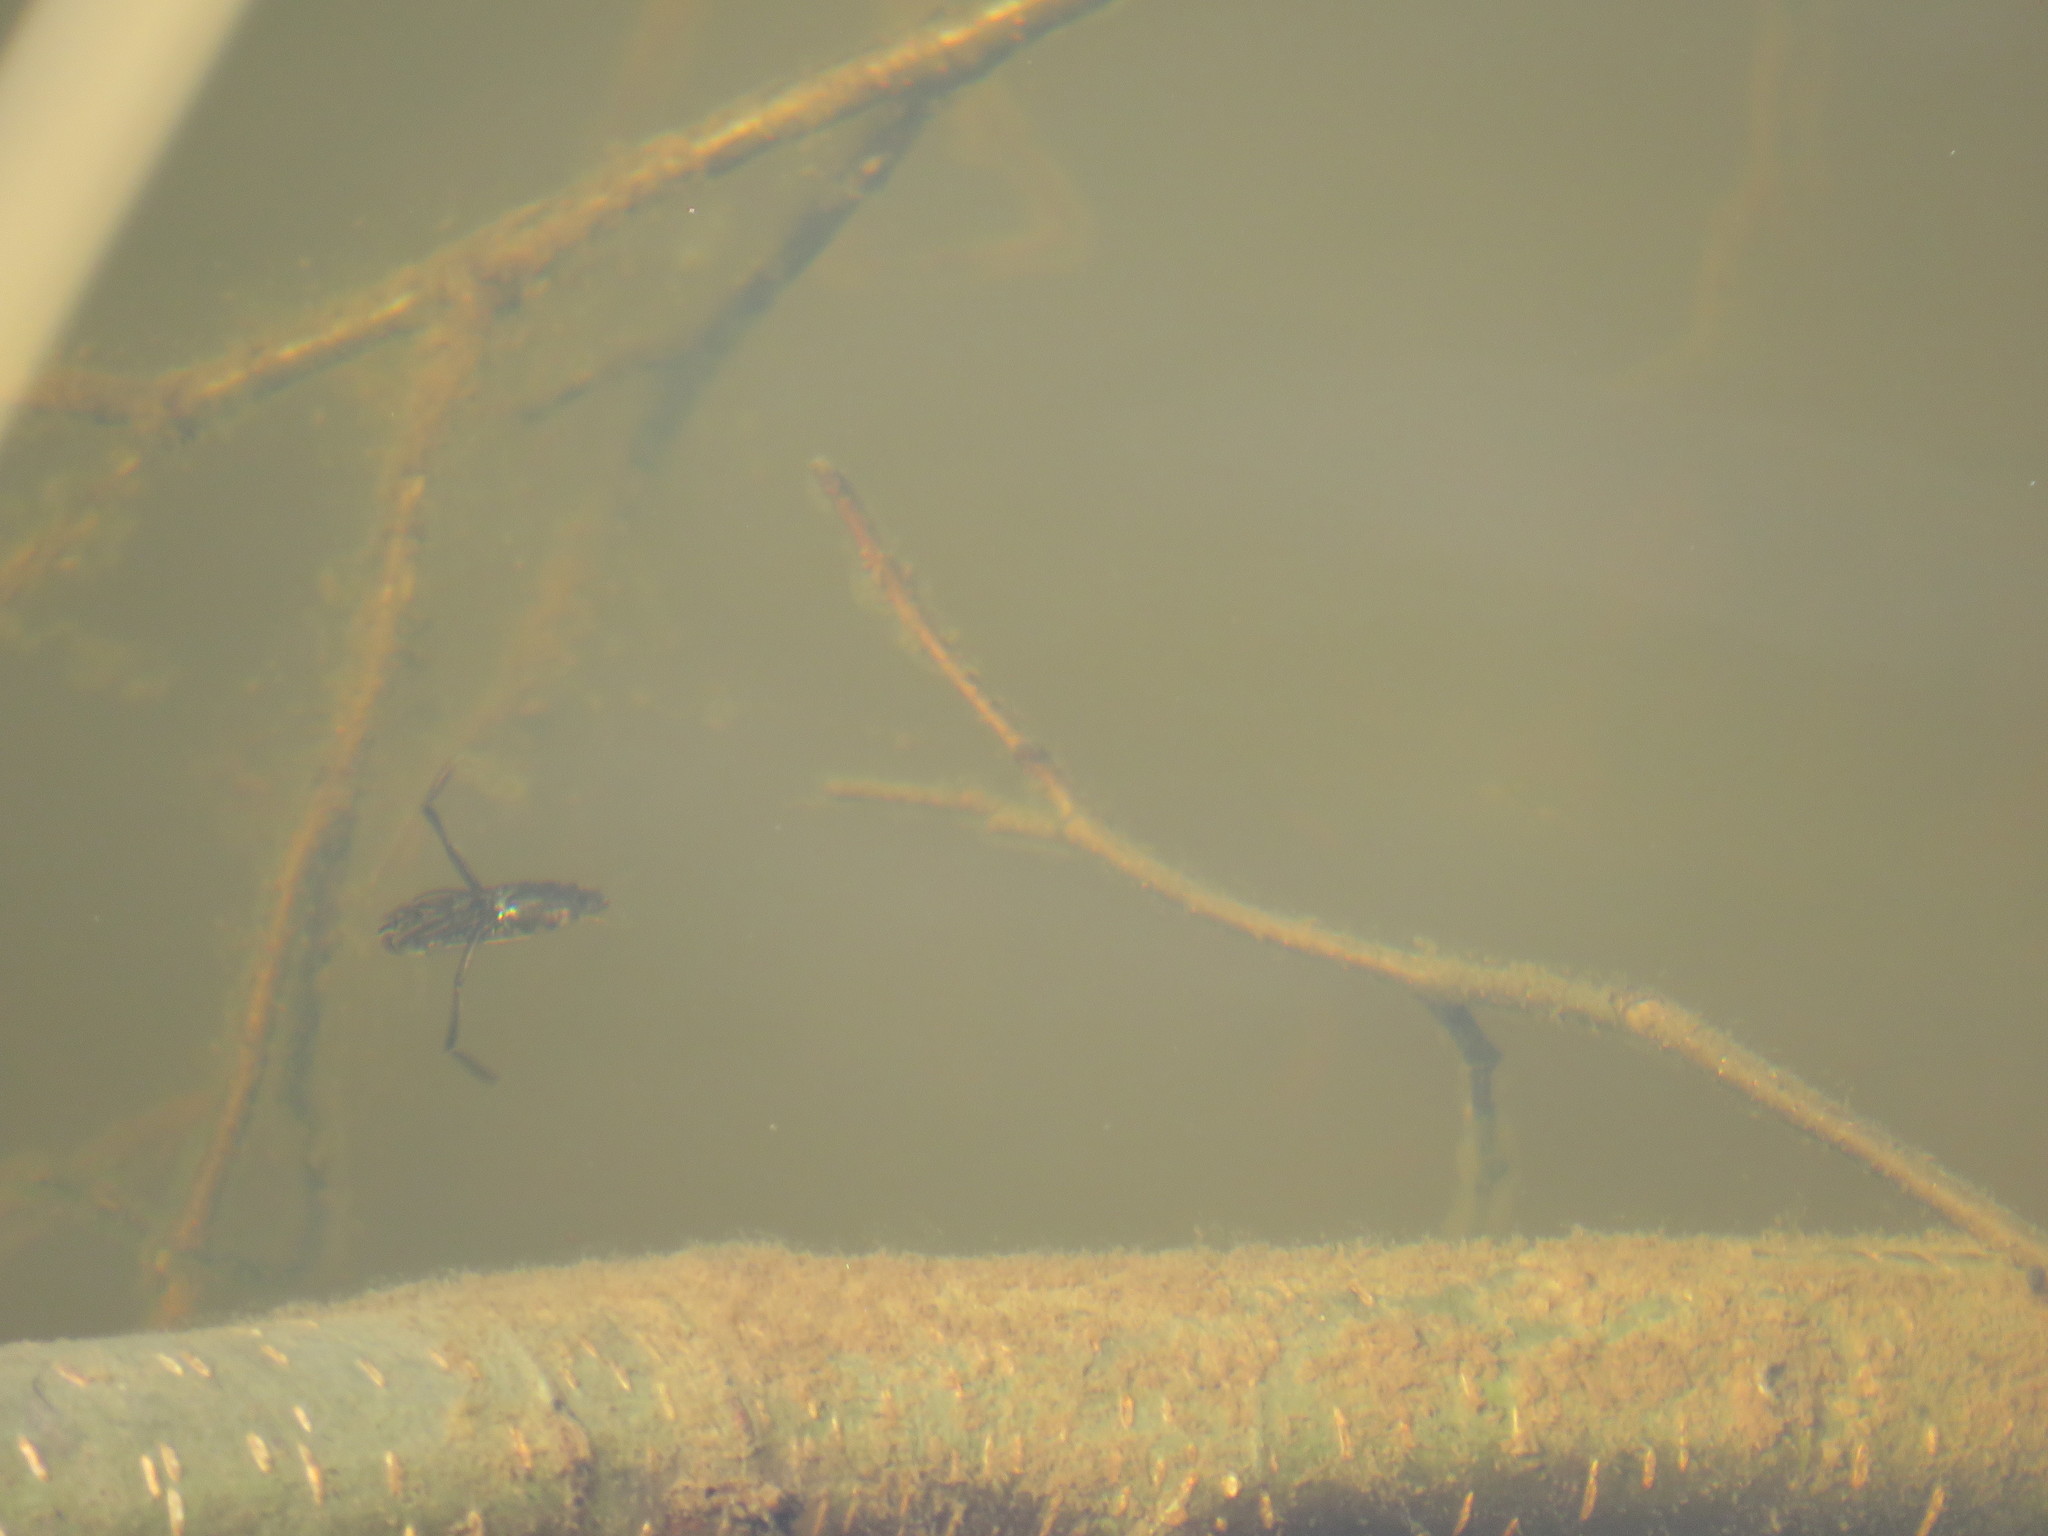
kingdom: Animalia
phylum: Arthropoda
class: Insecta
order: Hemiptera
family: Notonectidae
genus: Notonecta
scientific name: Notonecta
